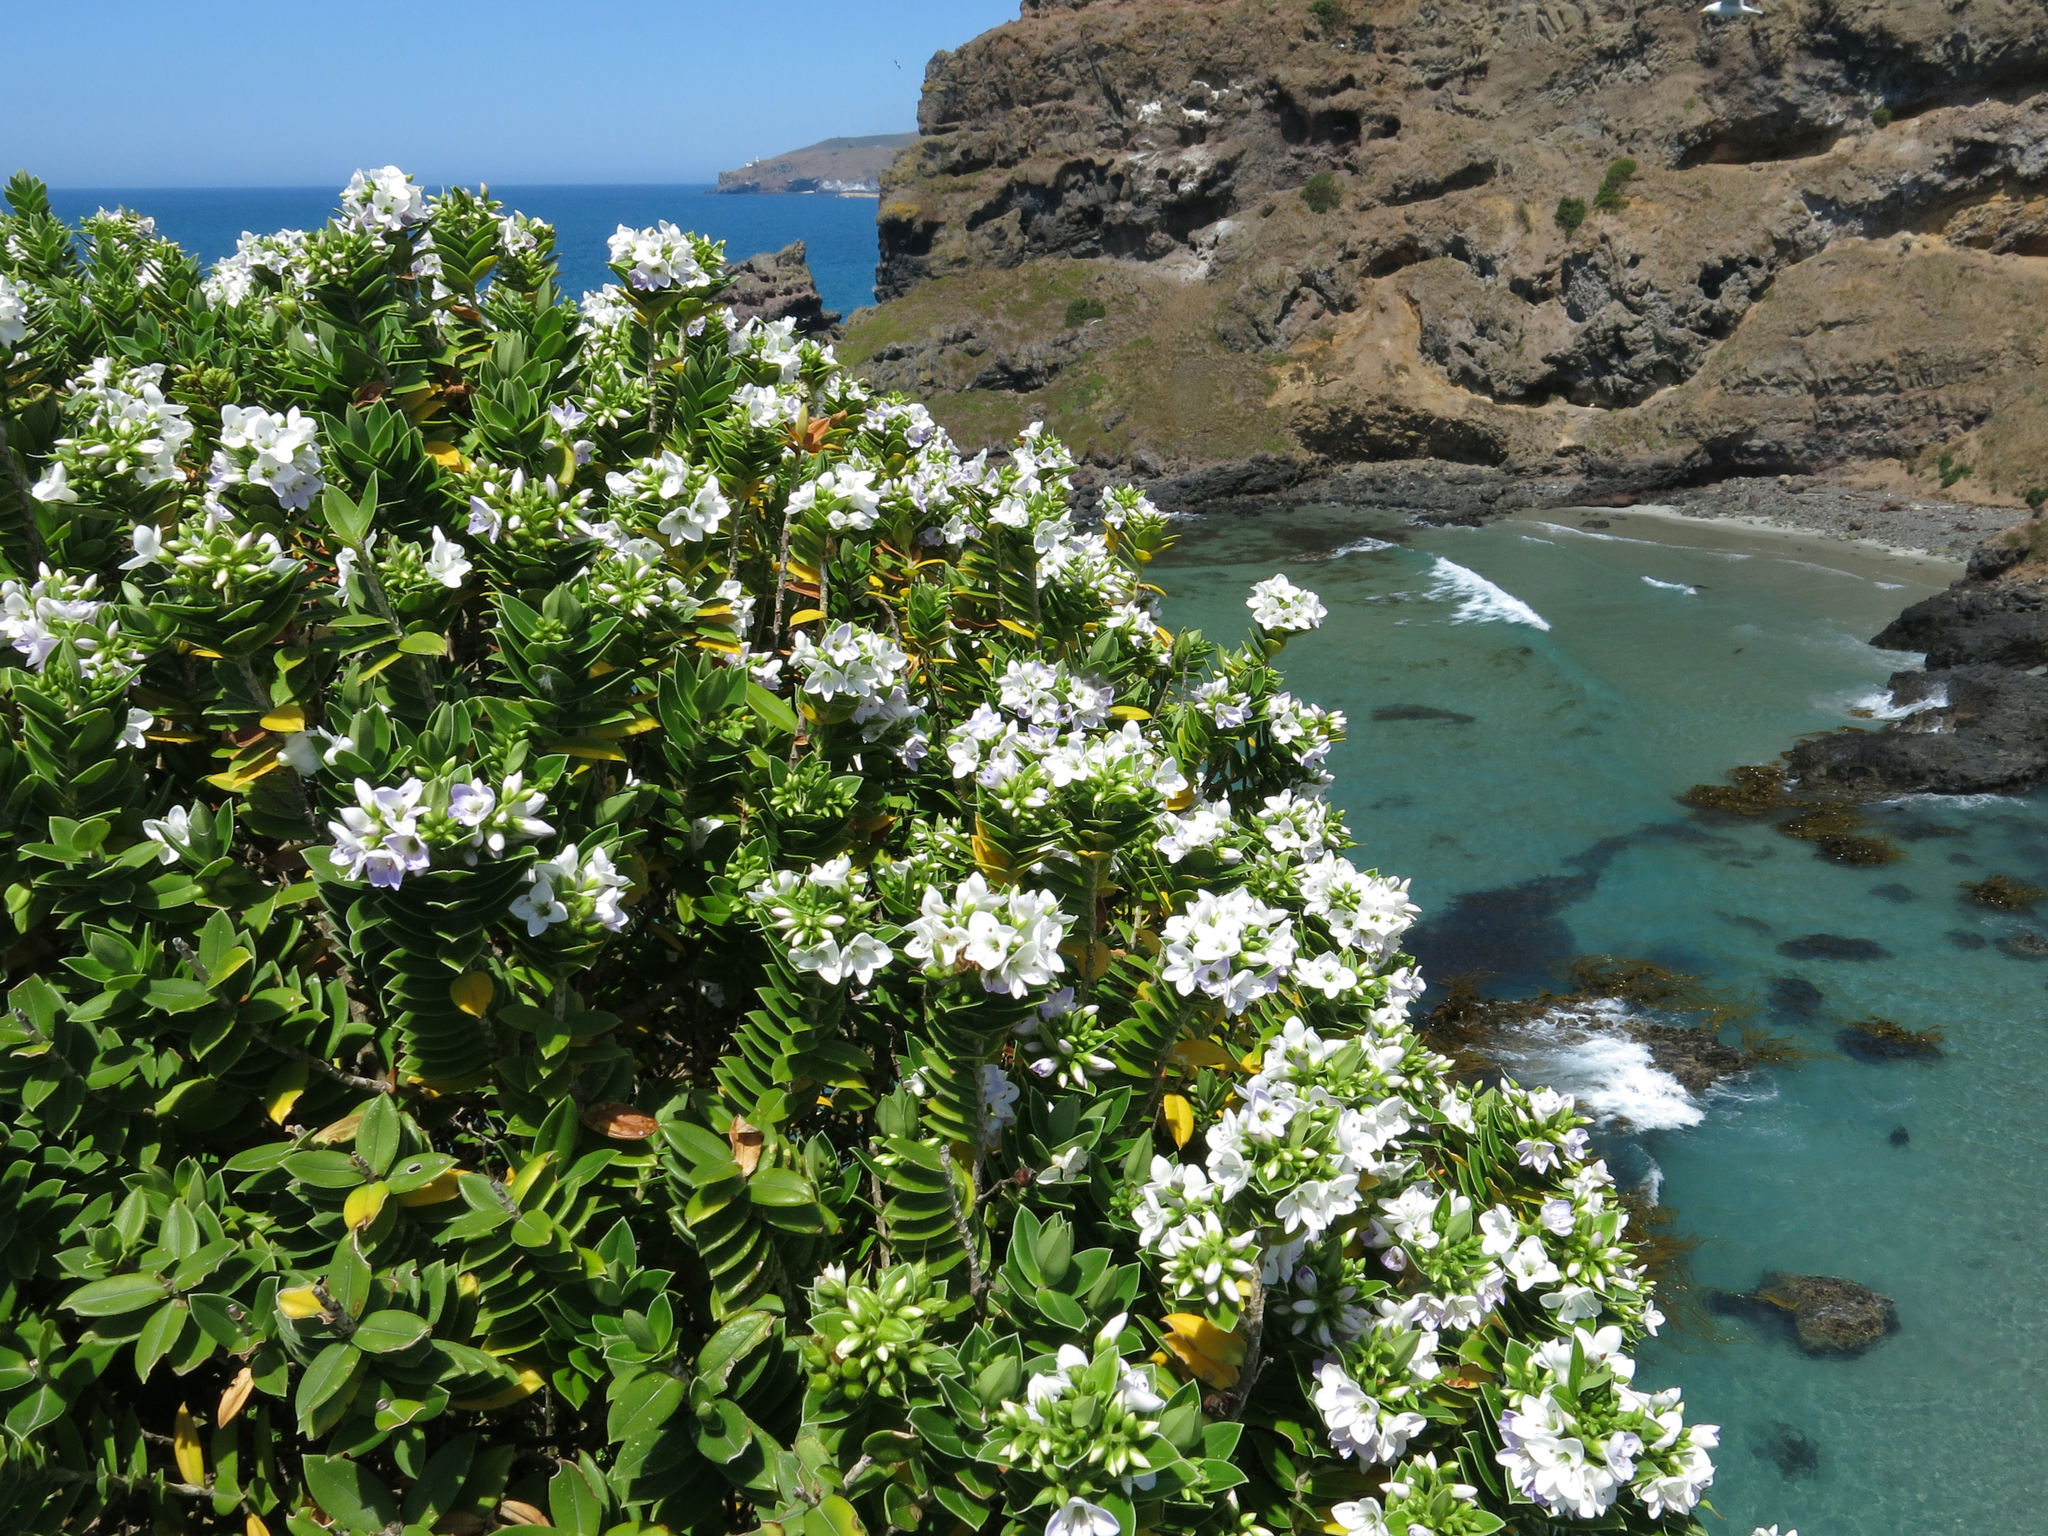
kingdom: Plantae
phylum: Tracheophyta
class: Magnoliopsida
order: Lamiales
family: Plantaginaceae
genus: Veronica
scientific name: Veronica elliptica
